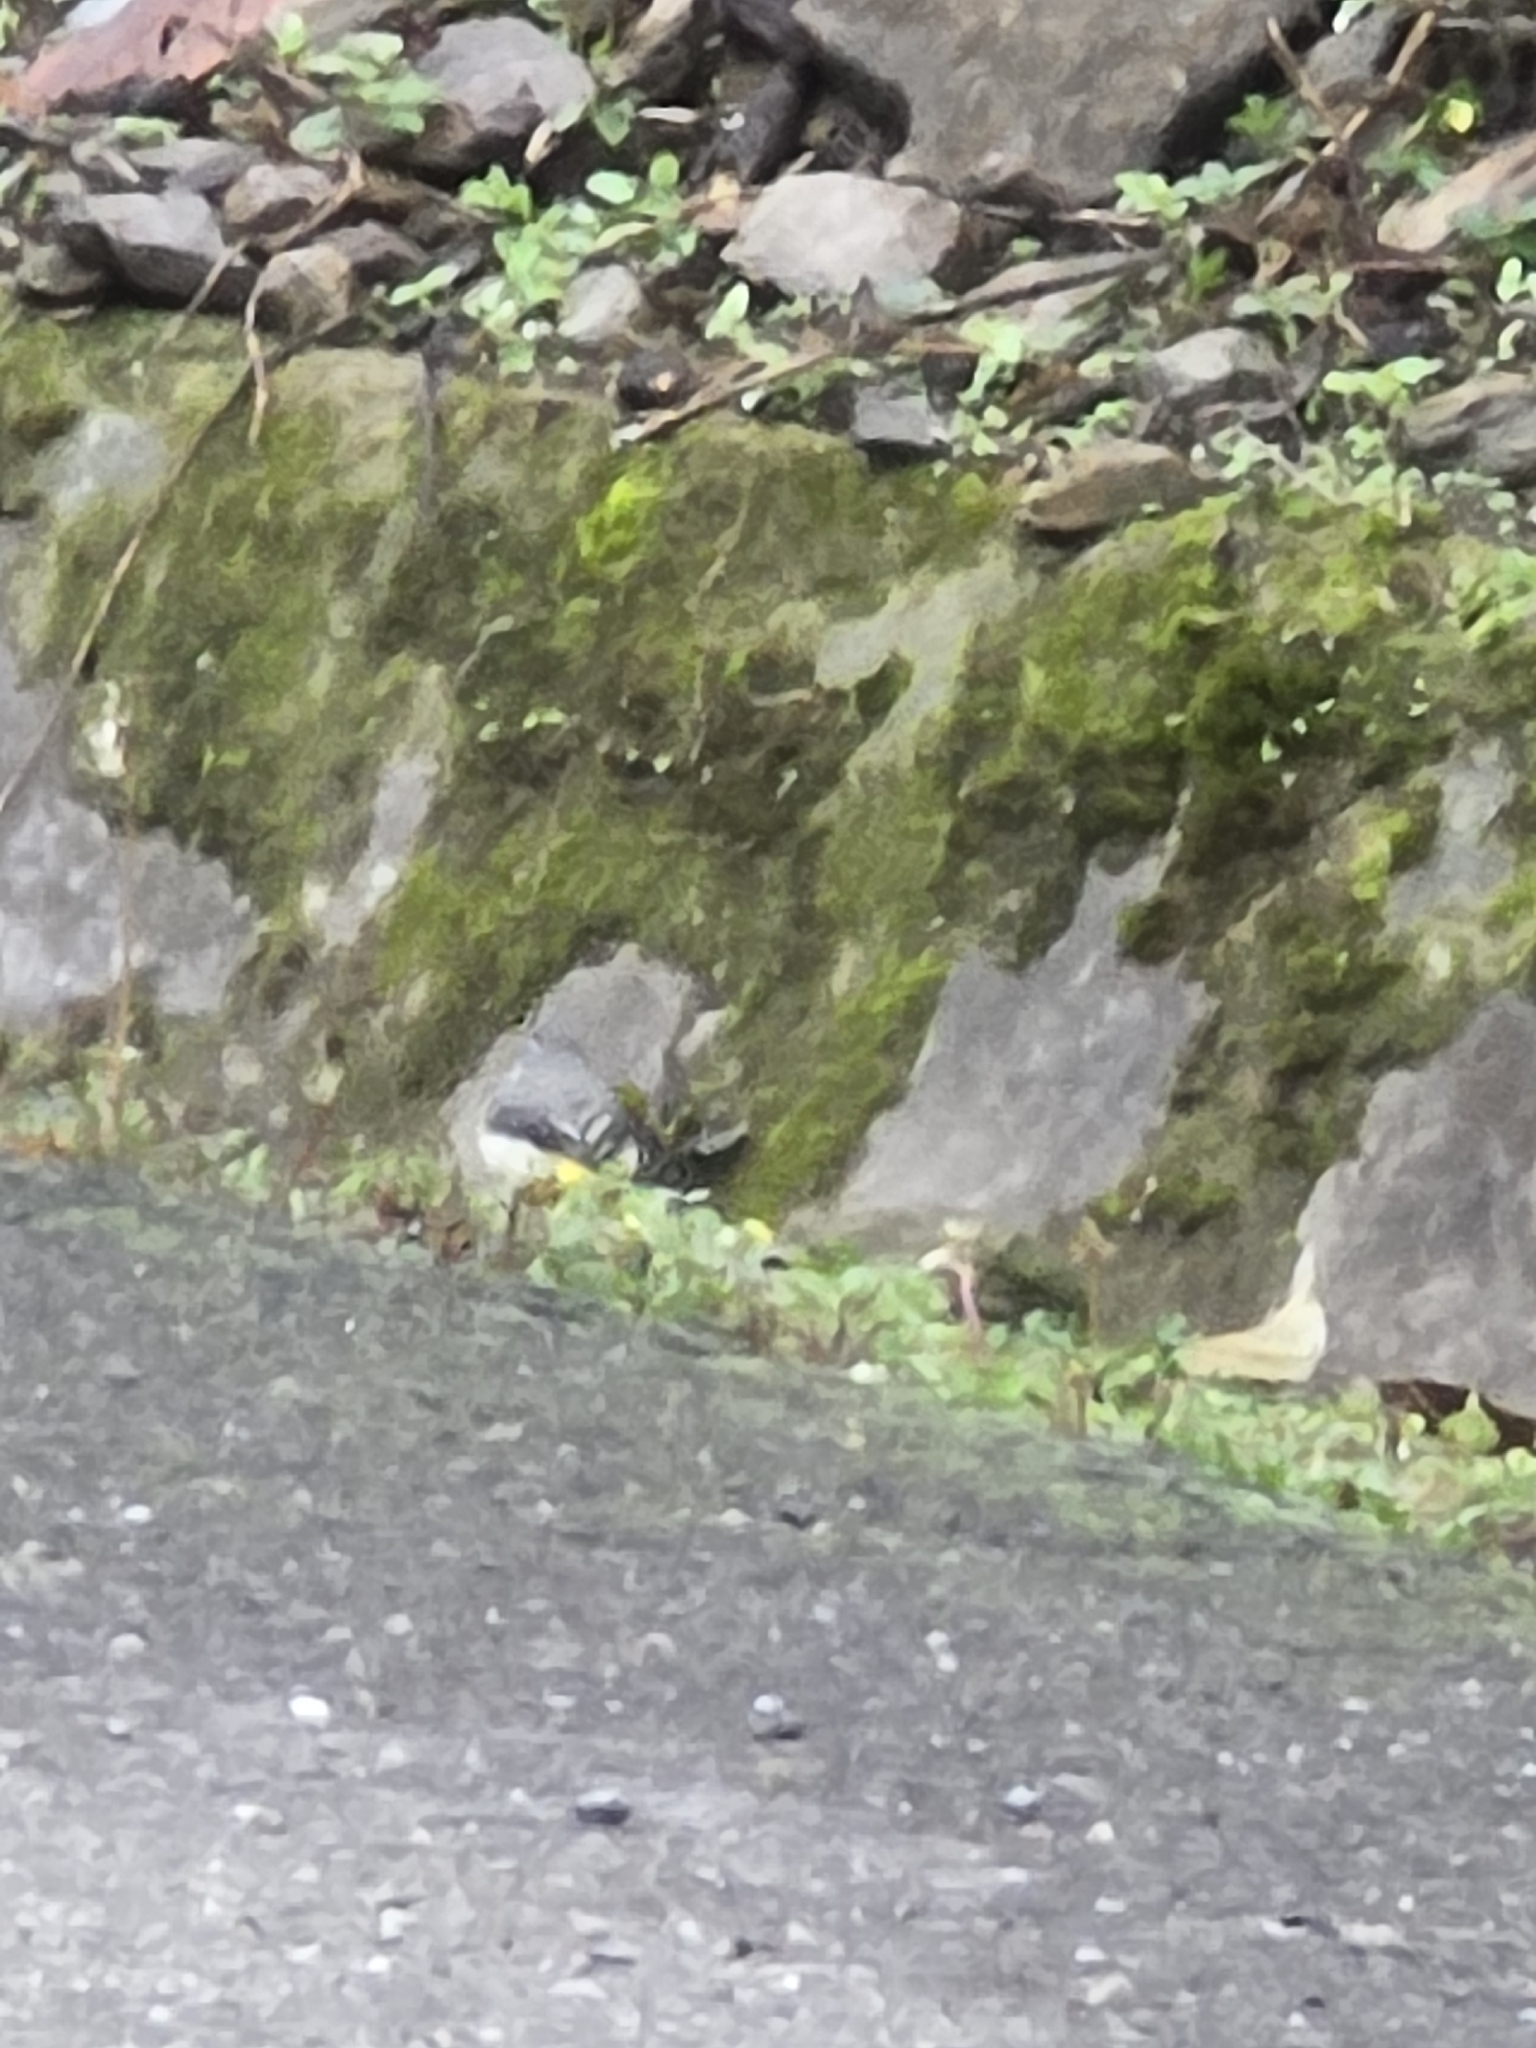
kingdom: Animalia
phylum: Chordata
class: Aves
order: Passeriformes
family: Motacillidae
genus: Motacilla
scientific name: Motacilla cinerea
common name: Grey wagtail
